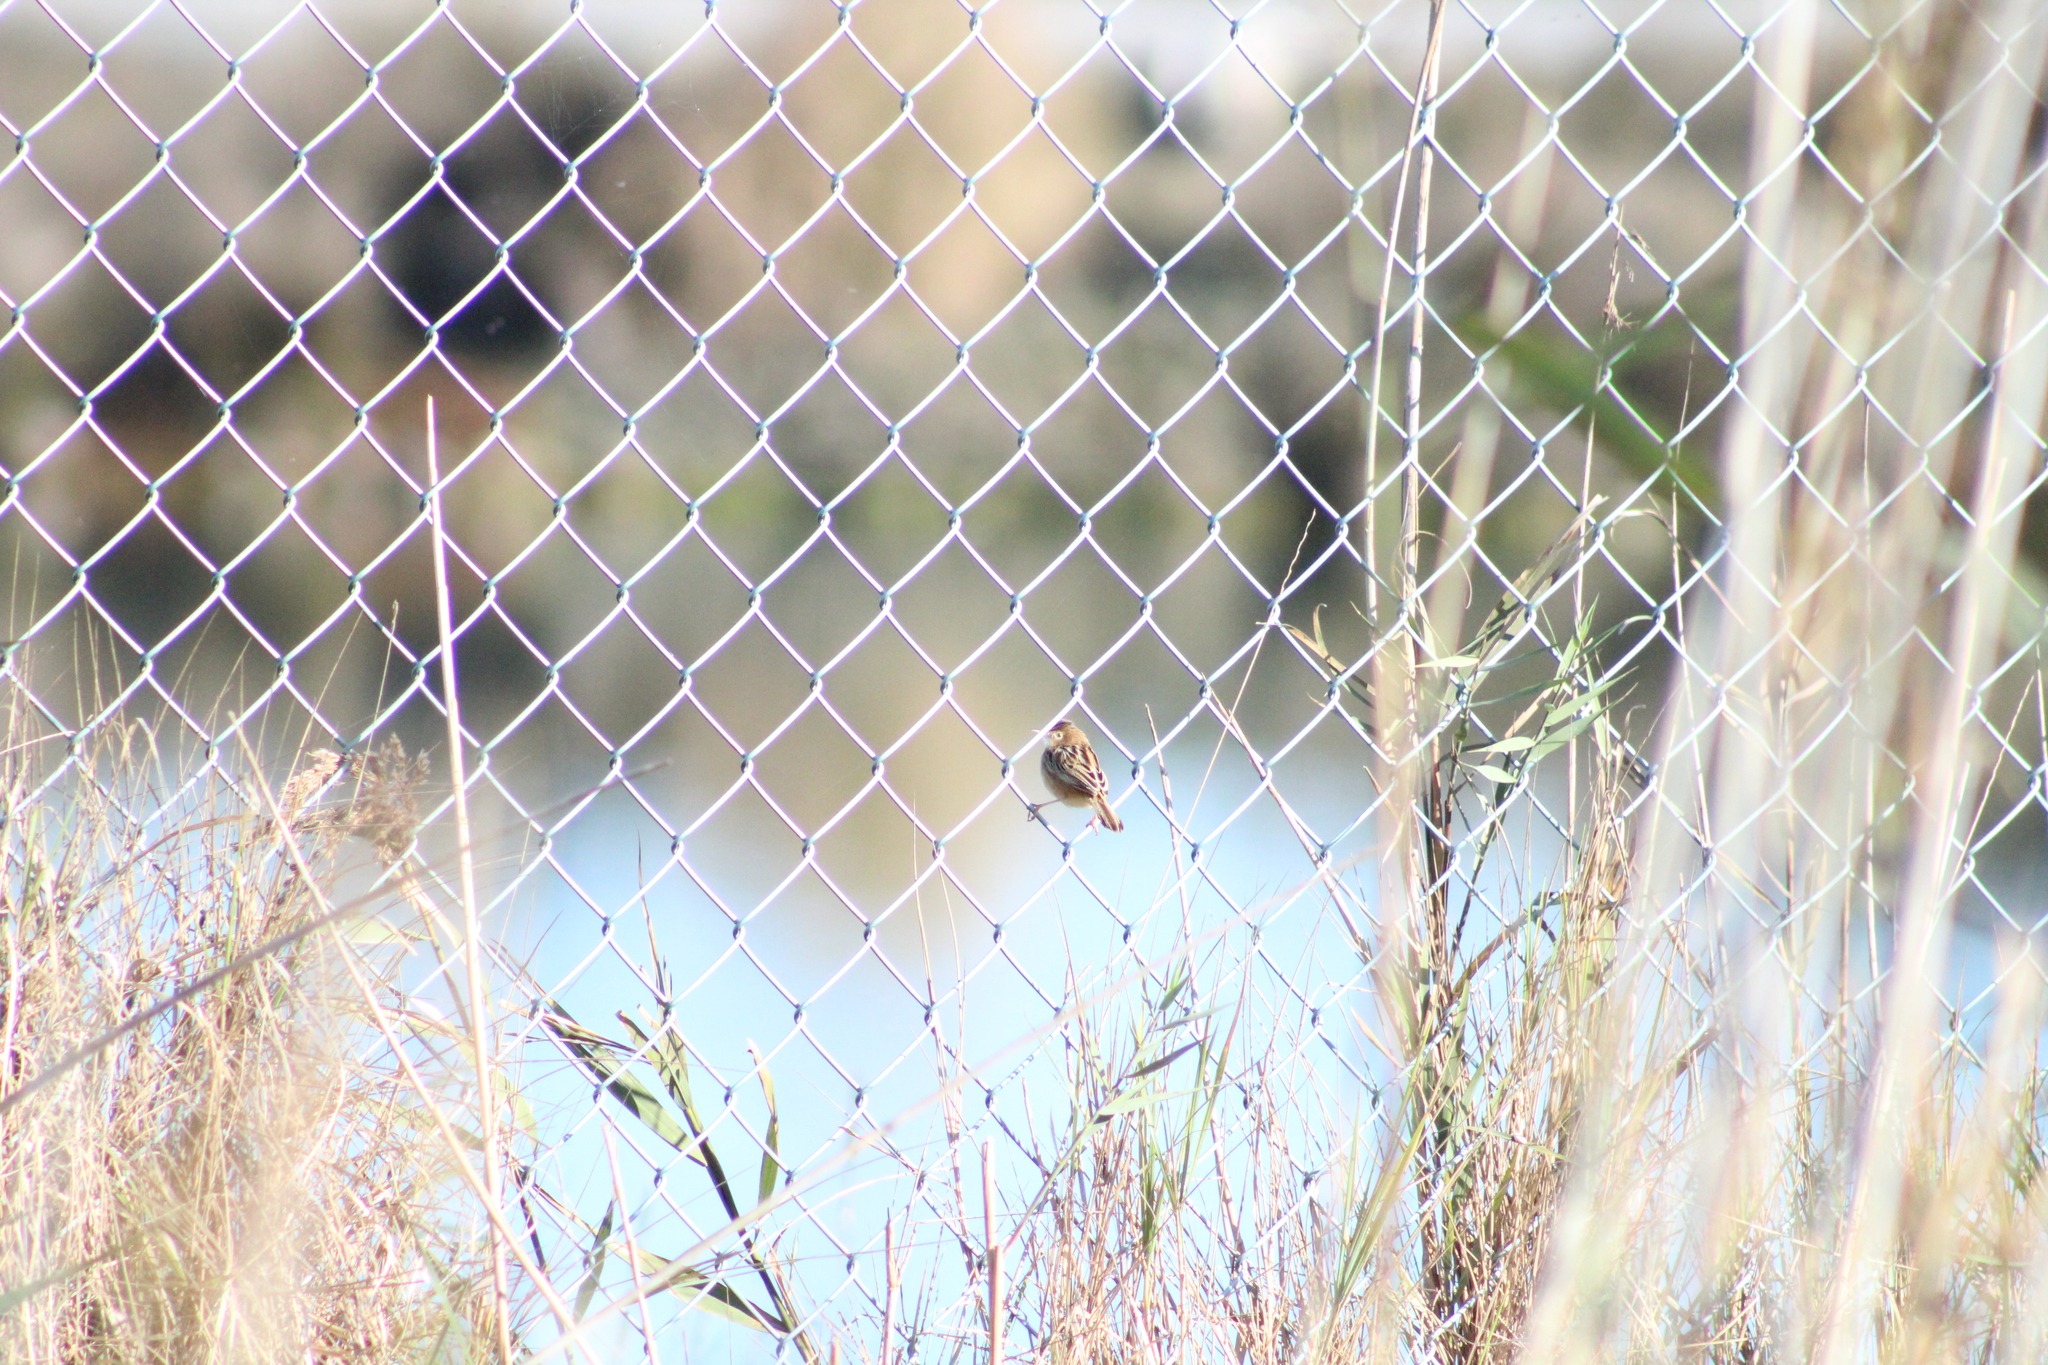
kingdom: Animalia
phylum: Chordata
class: Aves
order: Passeriformes
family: Cisticolidae
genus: Cisticola
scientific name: Cisticola juncidis
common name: Zitting cisticola
